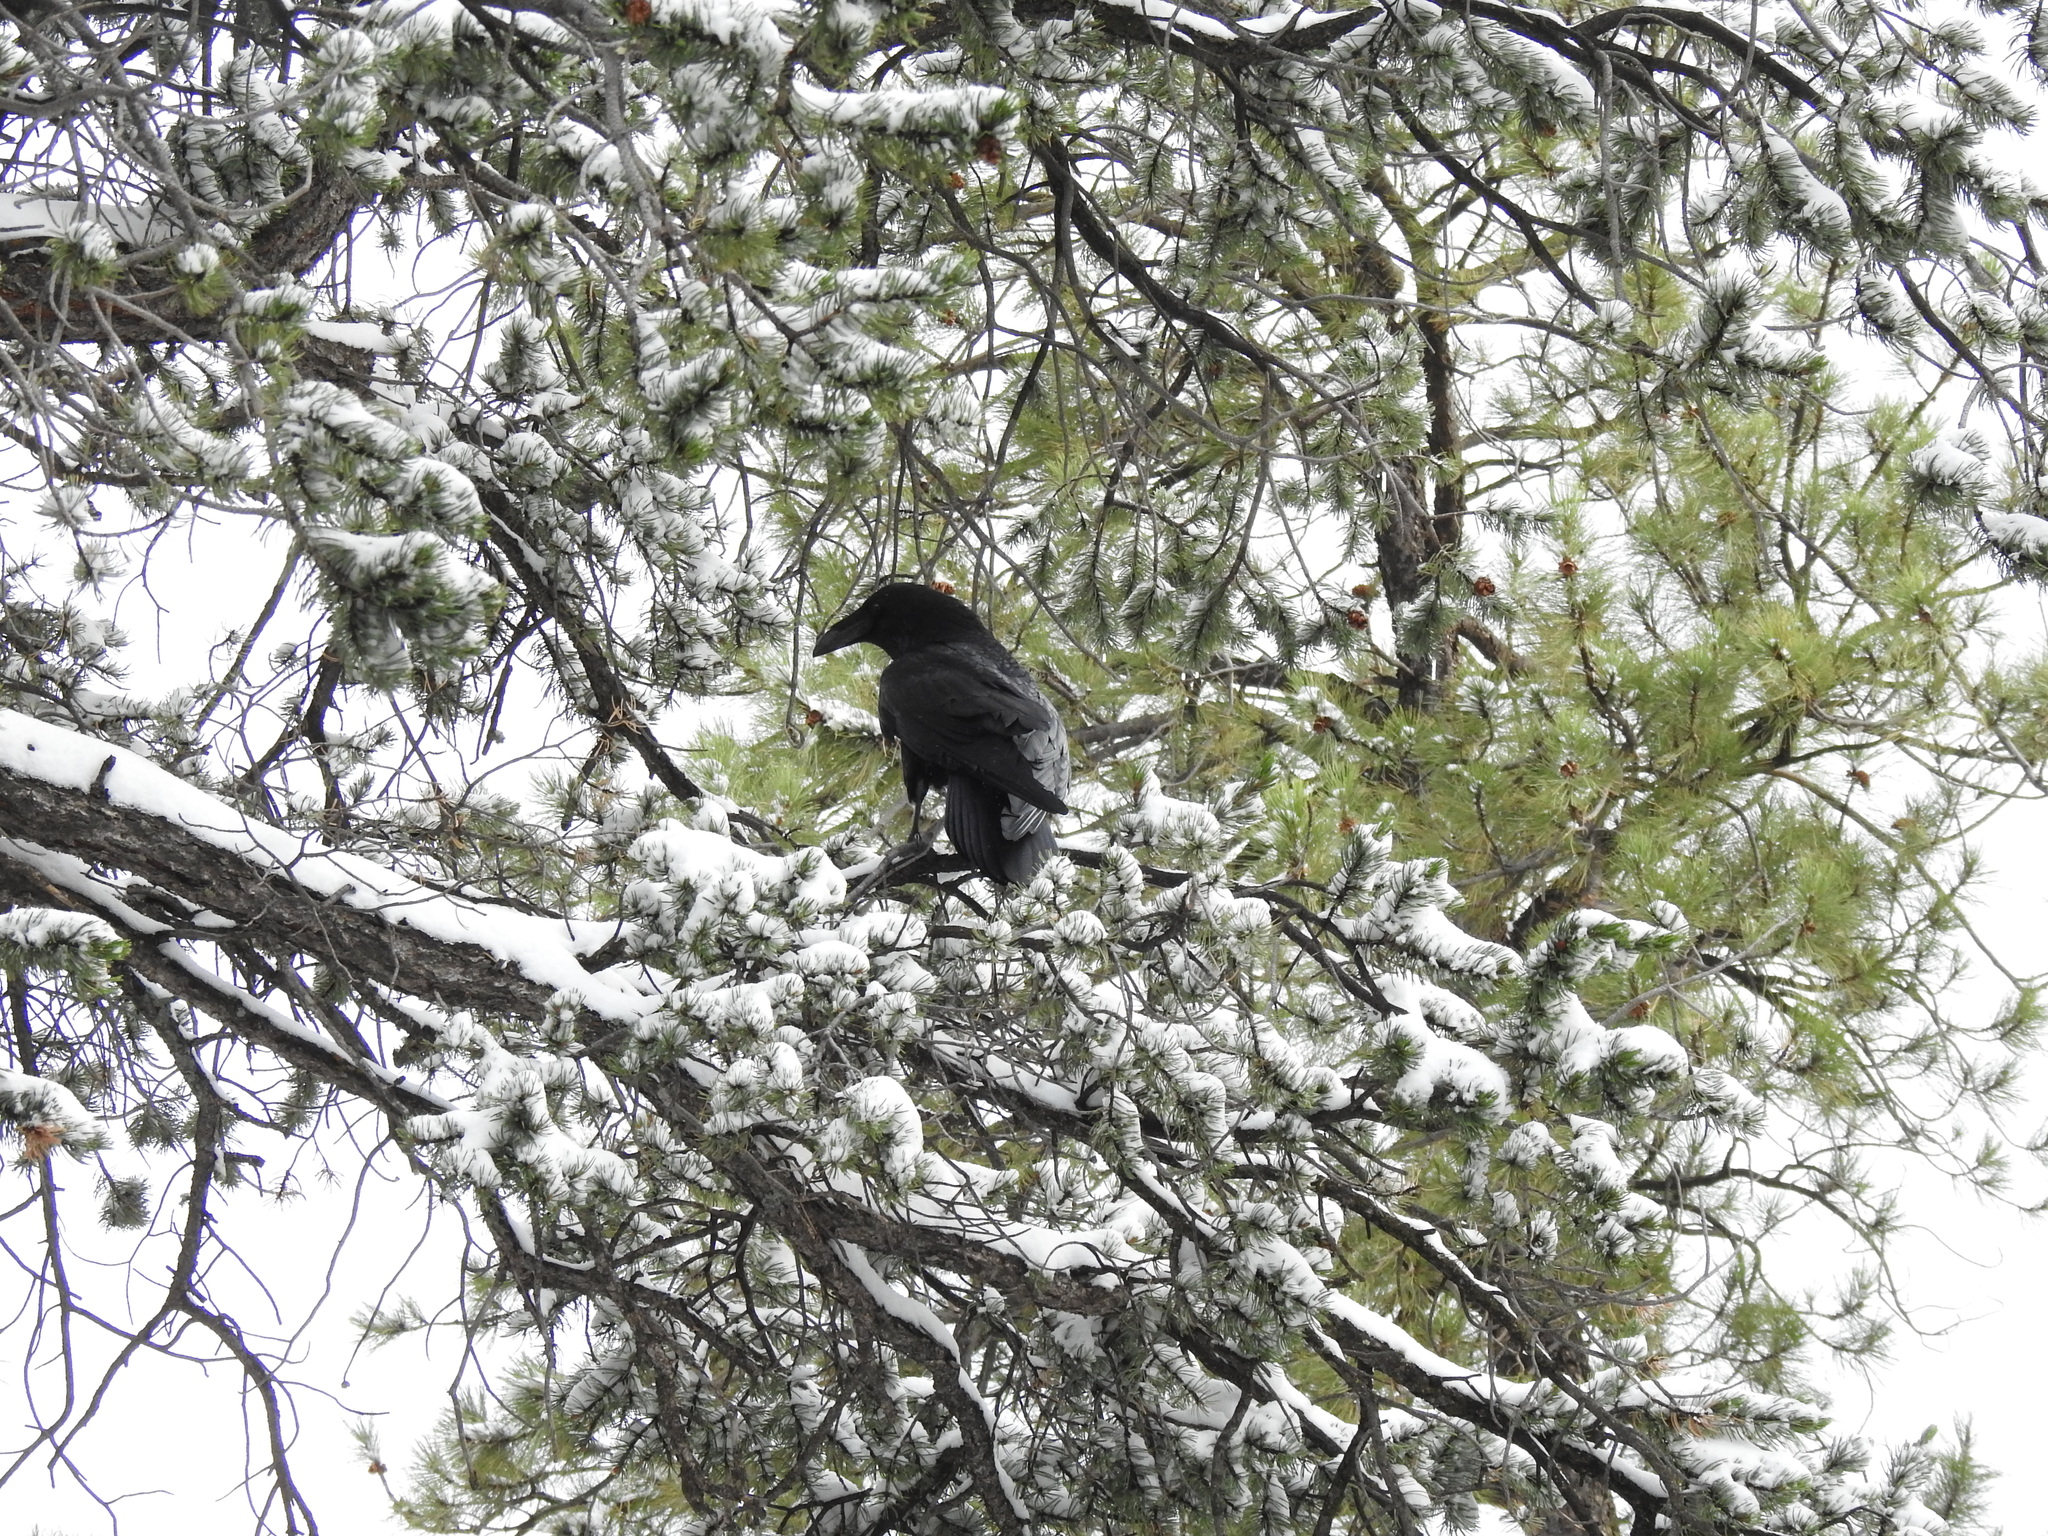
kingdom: Animalia
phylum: Chordata
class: Aves
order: Passeriformes
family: Corvidae
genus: Corvus
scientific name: Corvus corax
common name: Common raven
